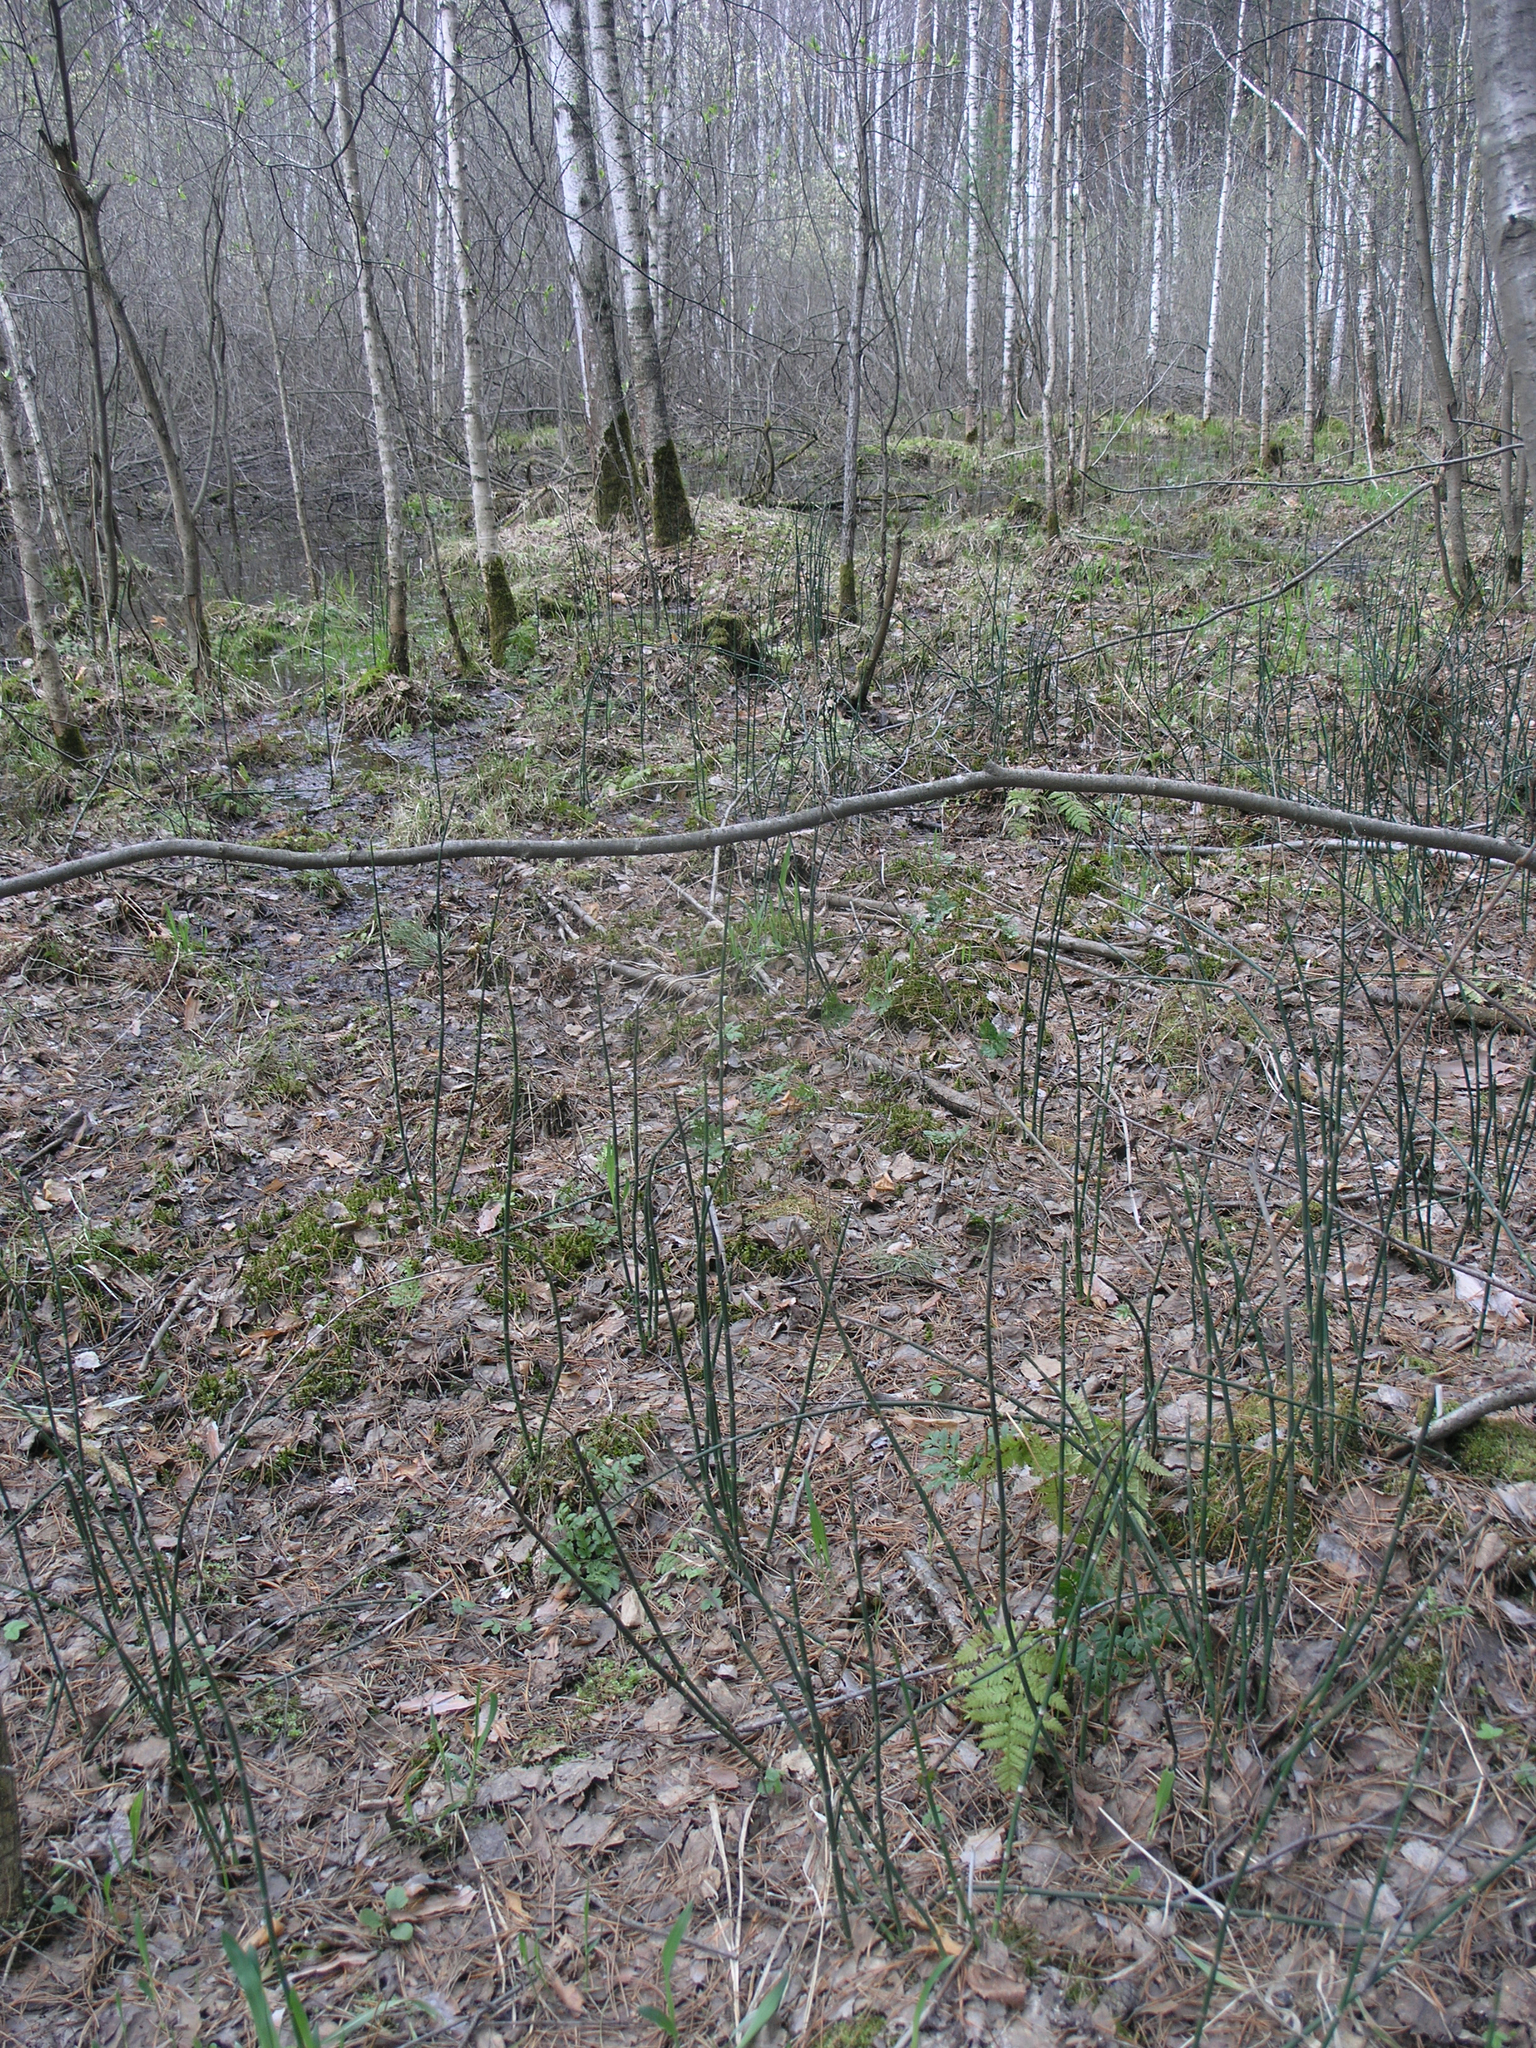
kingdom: Plantae
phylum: Tracheophyta
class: Polypodiopsida
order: Equisetales
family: Equisetaceae
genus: Equisetum
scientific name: Equisetum hyemale
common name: Rough horsetail
